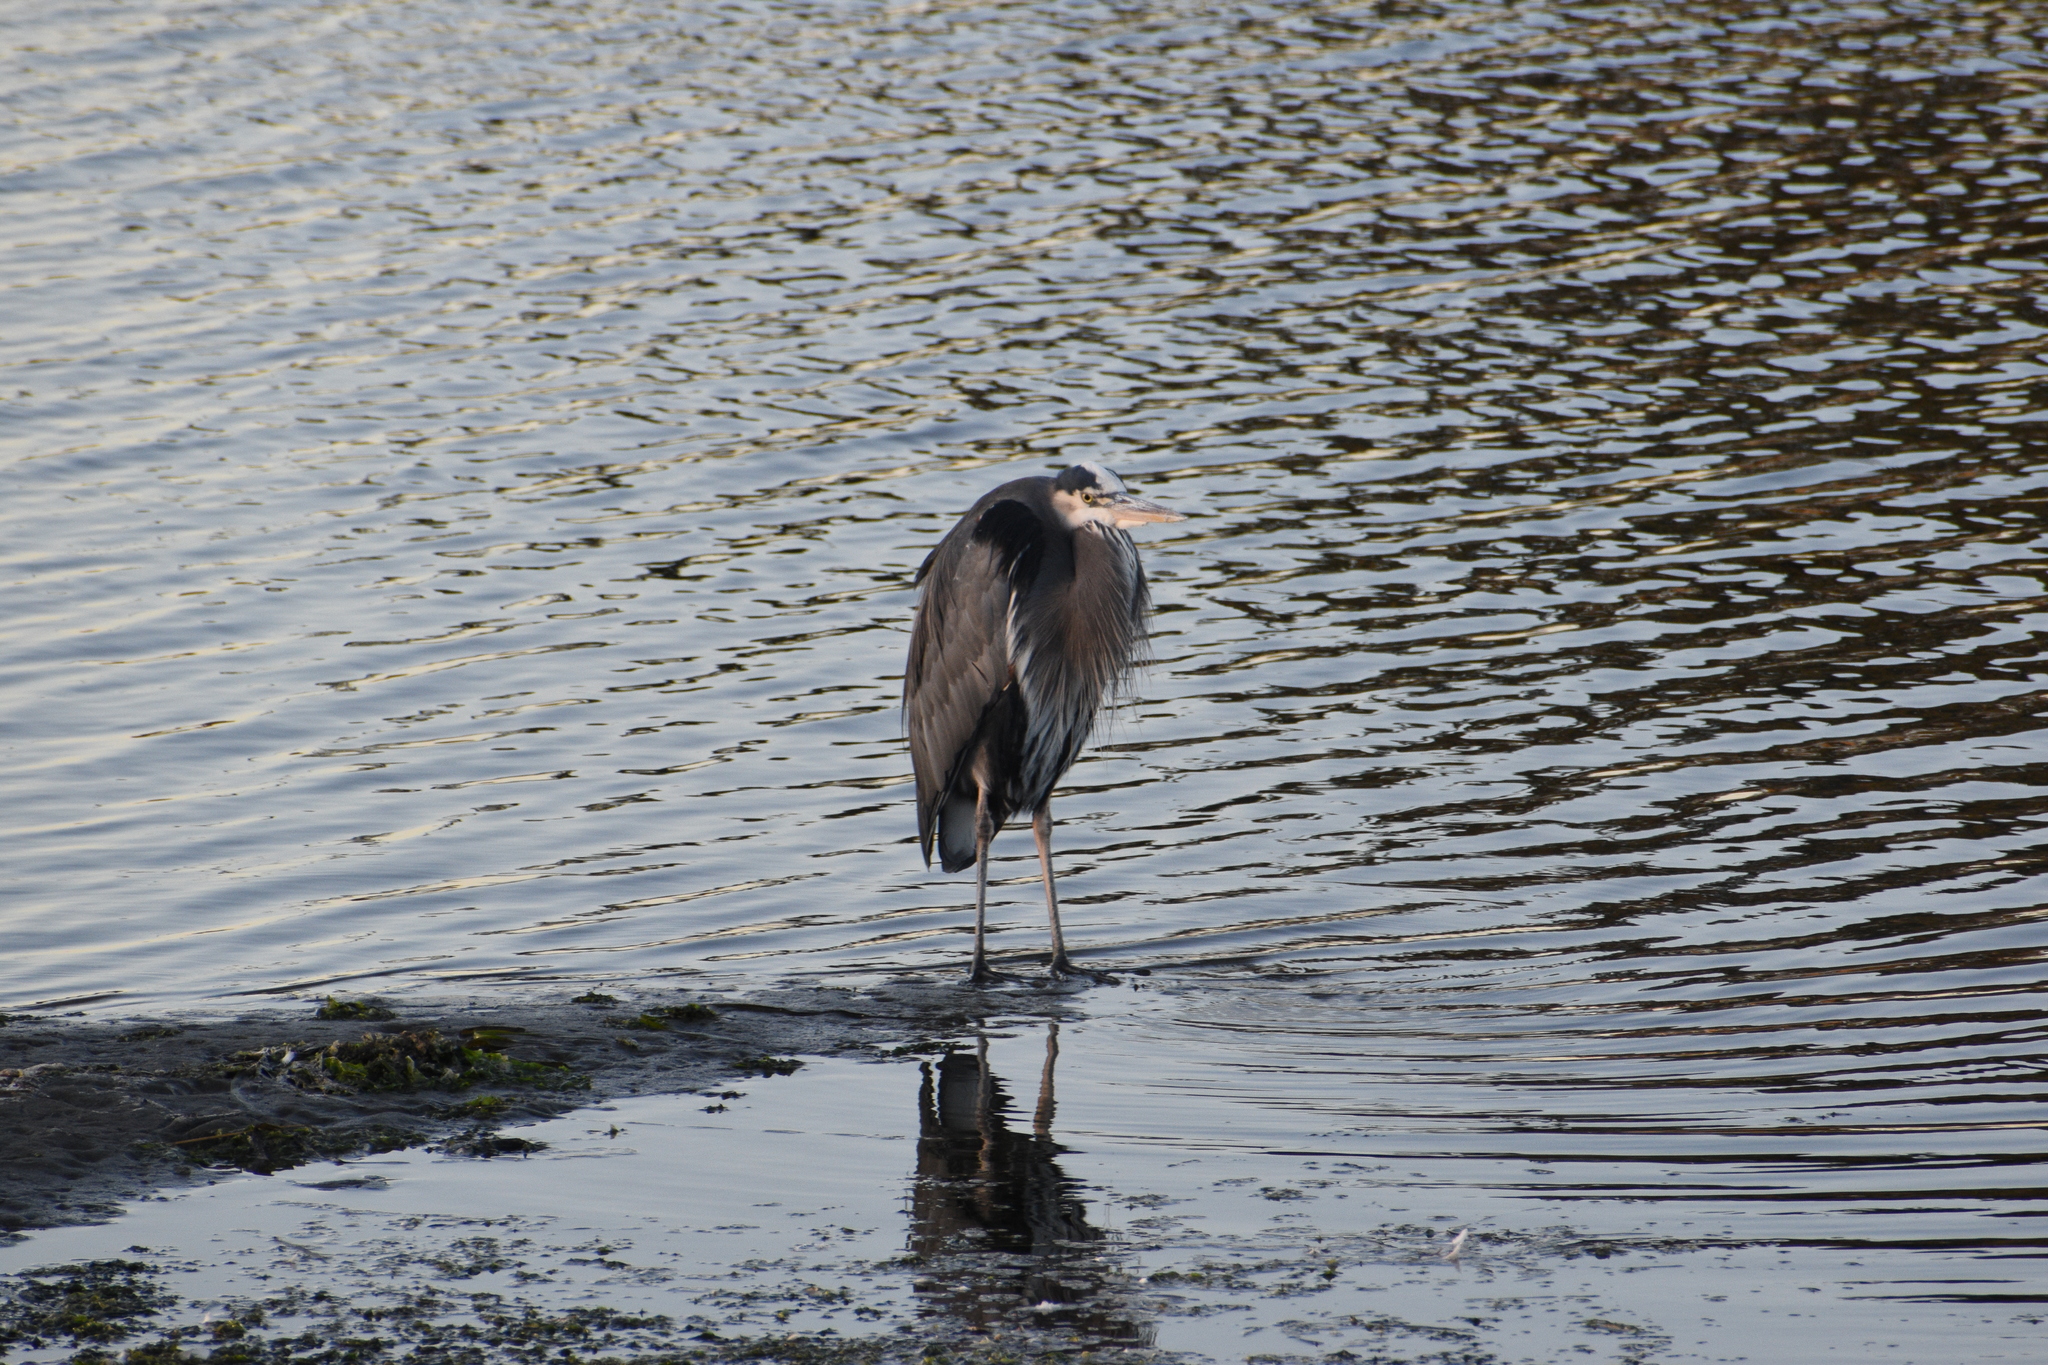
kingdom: Animalia
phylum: Chordata
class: Aves
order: Pelecaniformes
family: Ardeidae
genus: Ardea
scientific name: Ardea herodias
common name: Great blue heron
